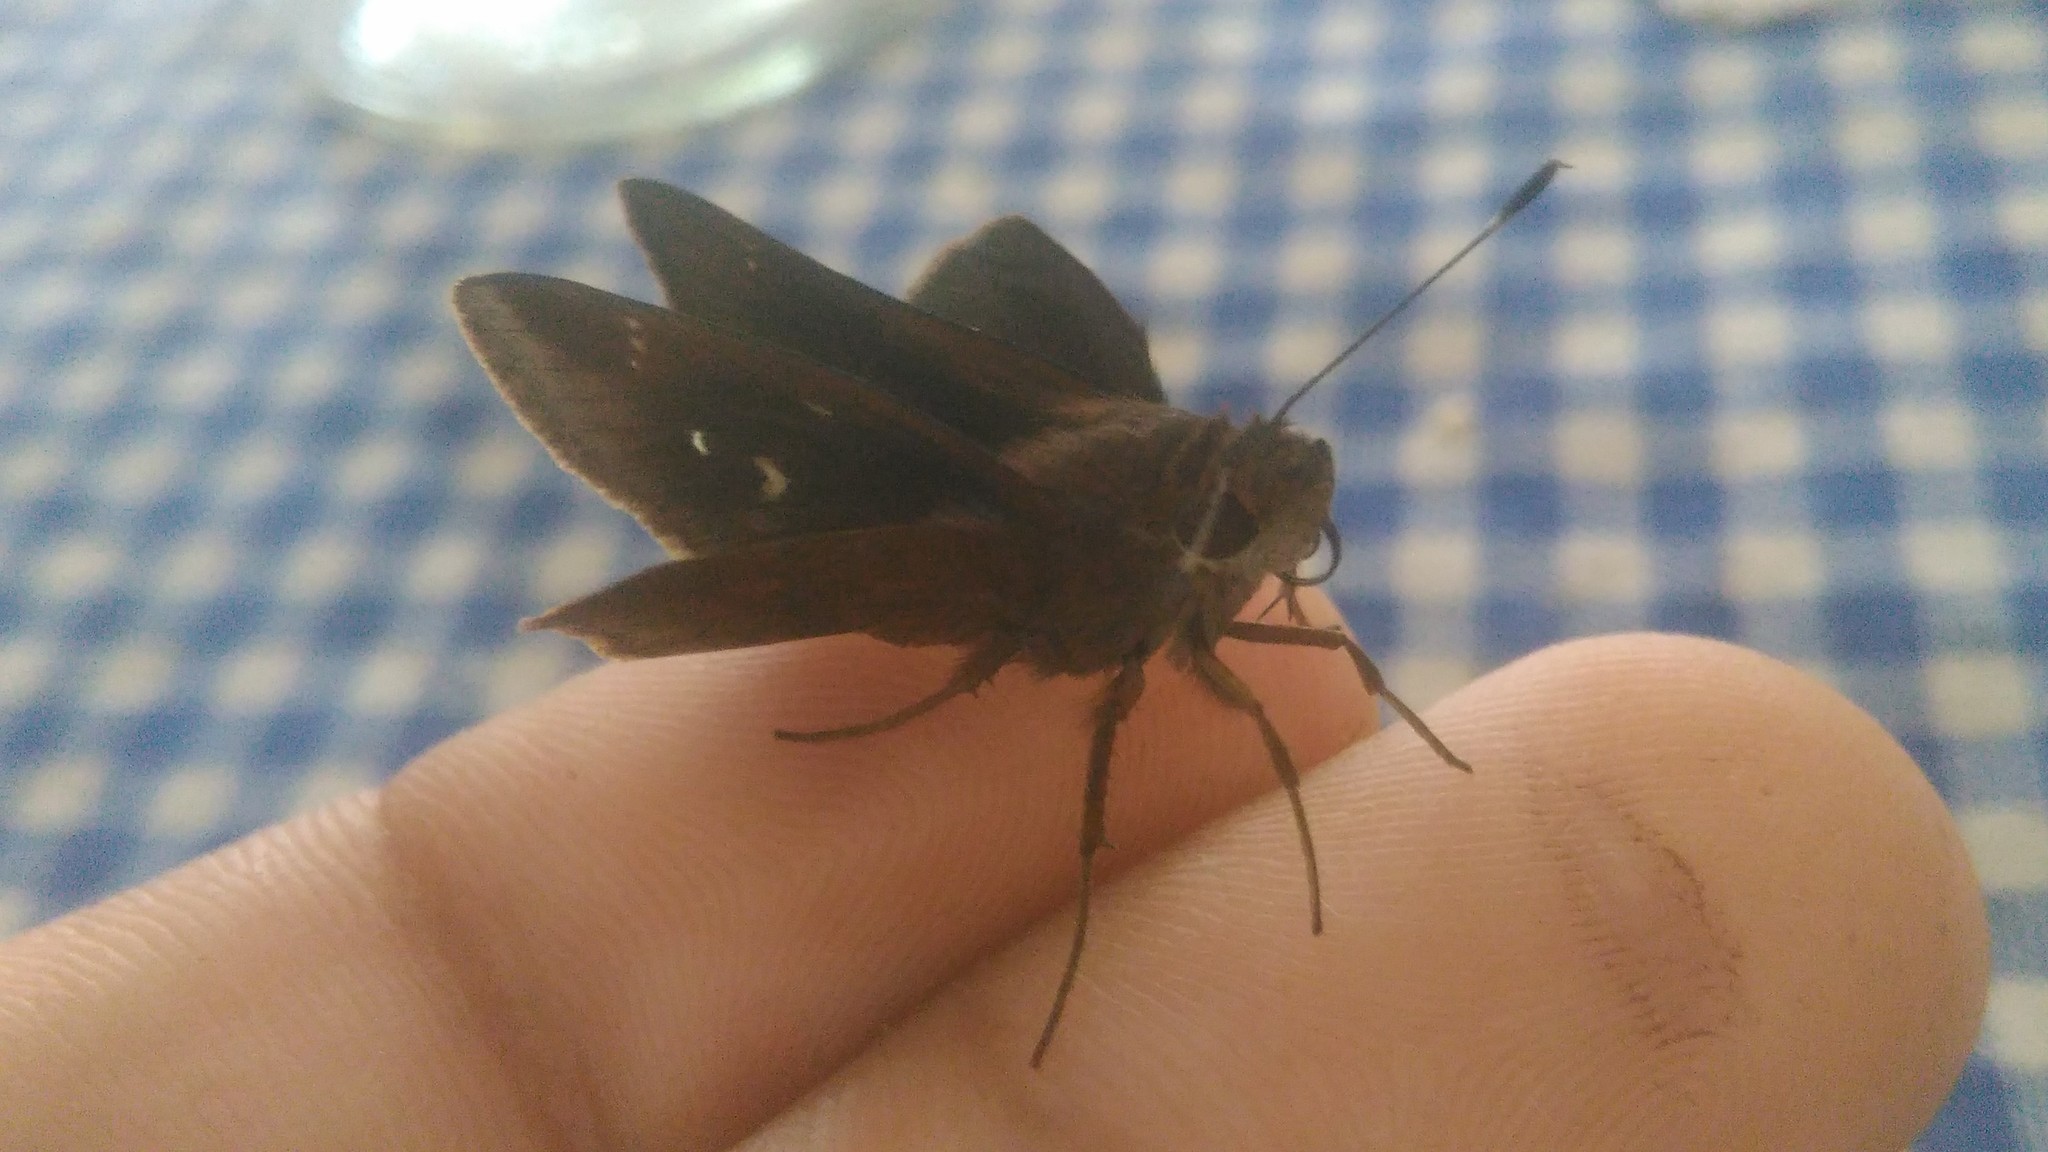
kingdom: Animalia
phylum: Arthropoda
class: Insecta
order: Lepidoptera
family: Hesperiidae
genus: Quinta
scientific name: Quinta cannae
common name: Canna skipper
